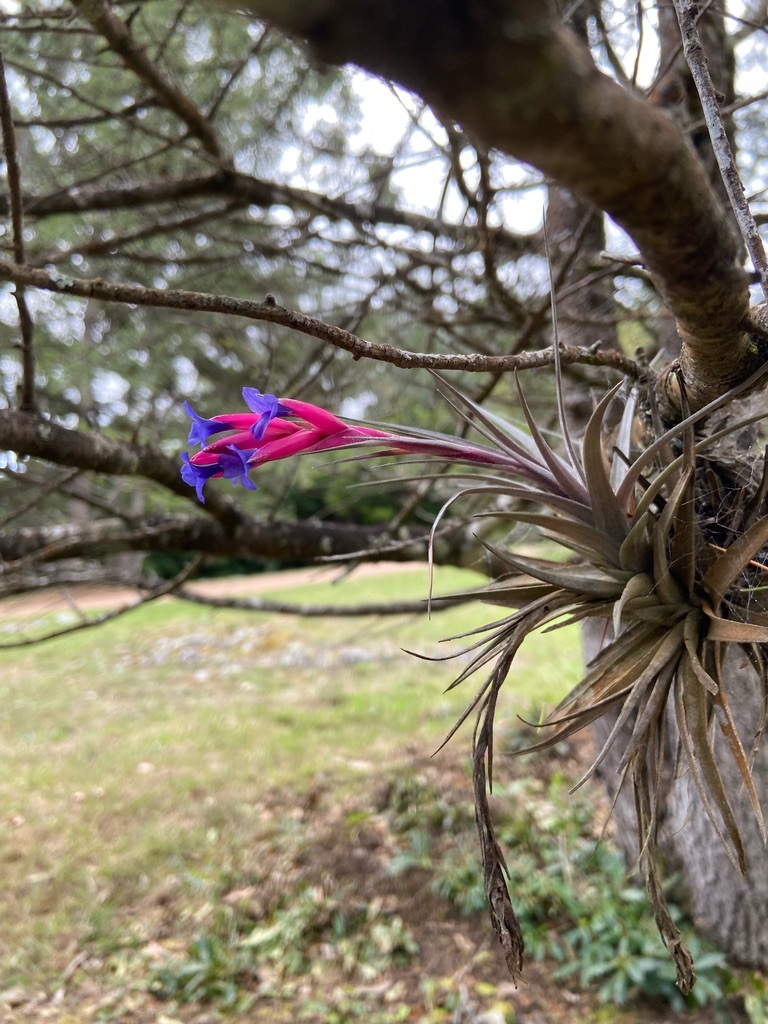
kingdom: Plantae
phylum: Tracheophyta
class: Liliopsida
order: Poales
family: Bromeliaceae
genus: Tillandsia
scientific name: Tillandsia aeranthos
